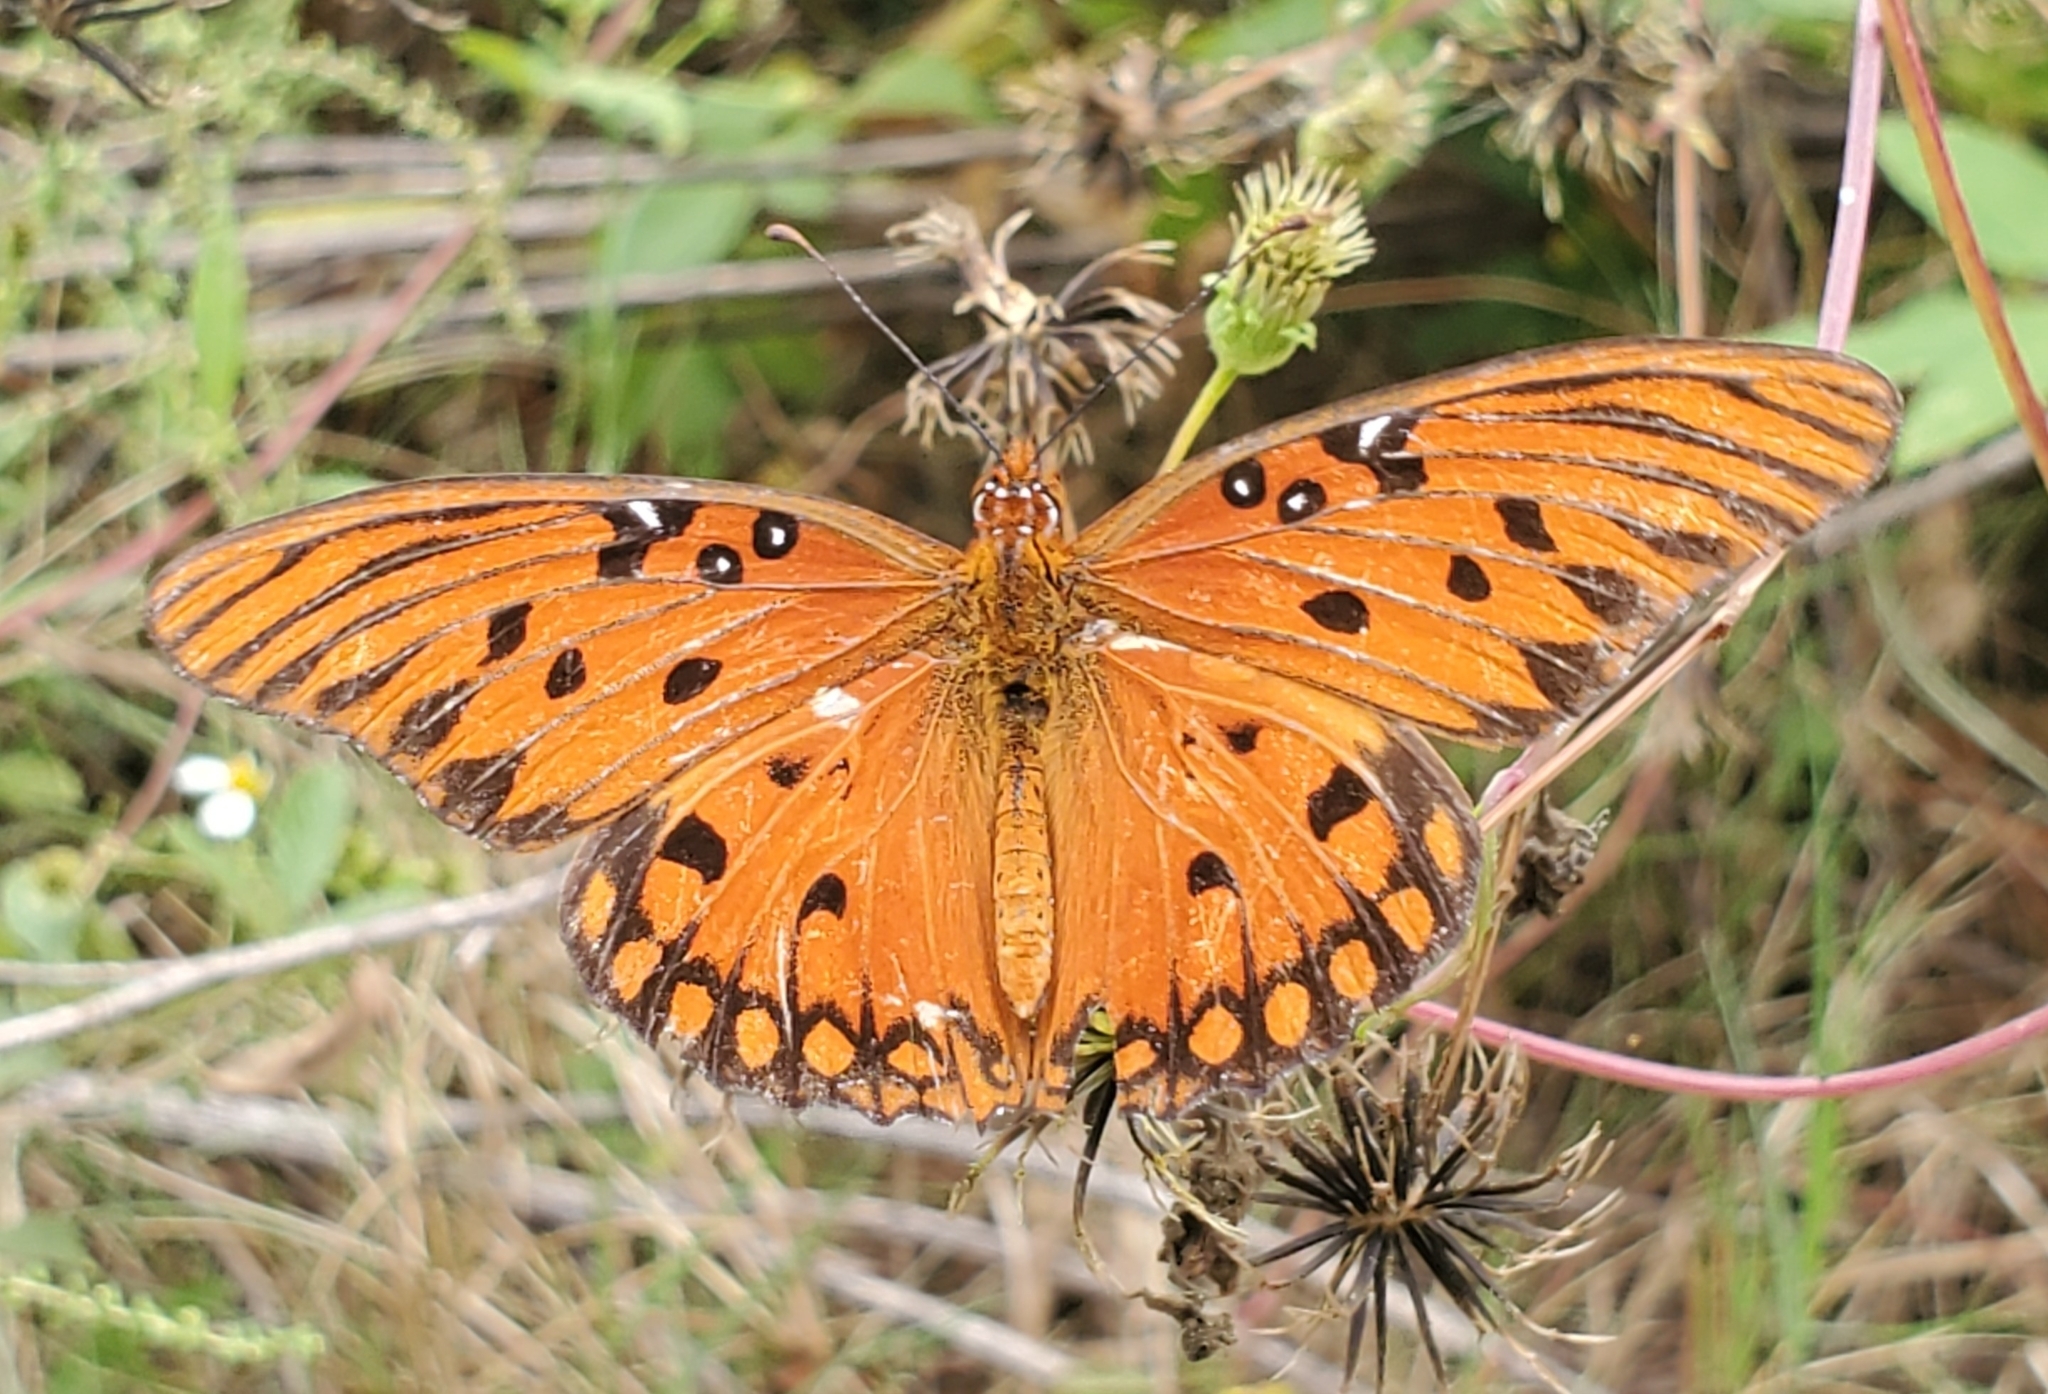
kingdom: Animalia
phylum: Arthropoda
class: Insecta
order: Lepidoptera
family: Nymphalidae
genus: Dione
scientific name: Dione vanillae
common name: Gulf fritillary
